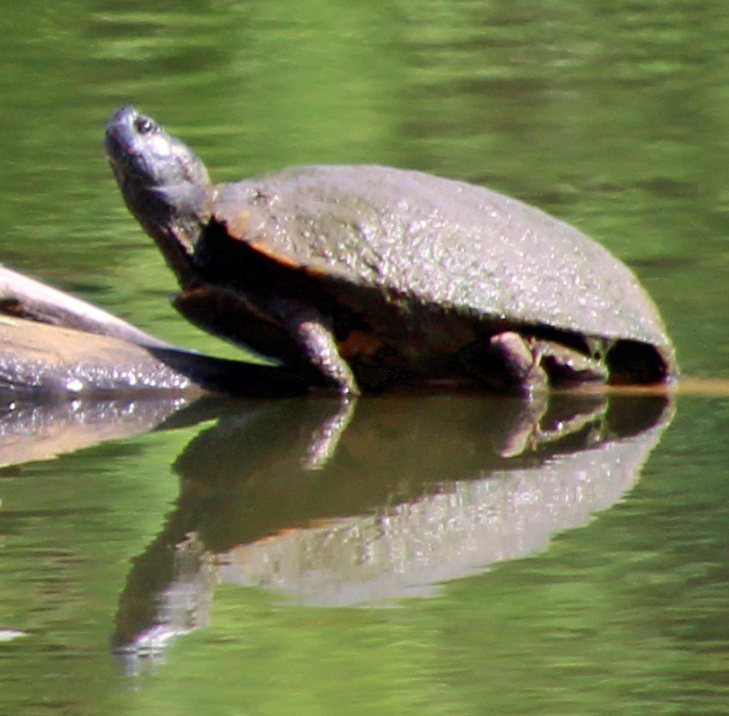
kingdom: Animalia
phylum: Chordata
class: Testudines
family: Emydidae
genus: Trachemys
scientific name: Trachemys scripta
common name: Slider
